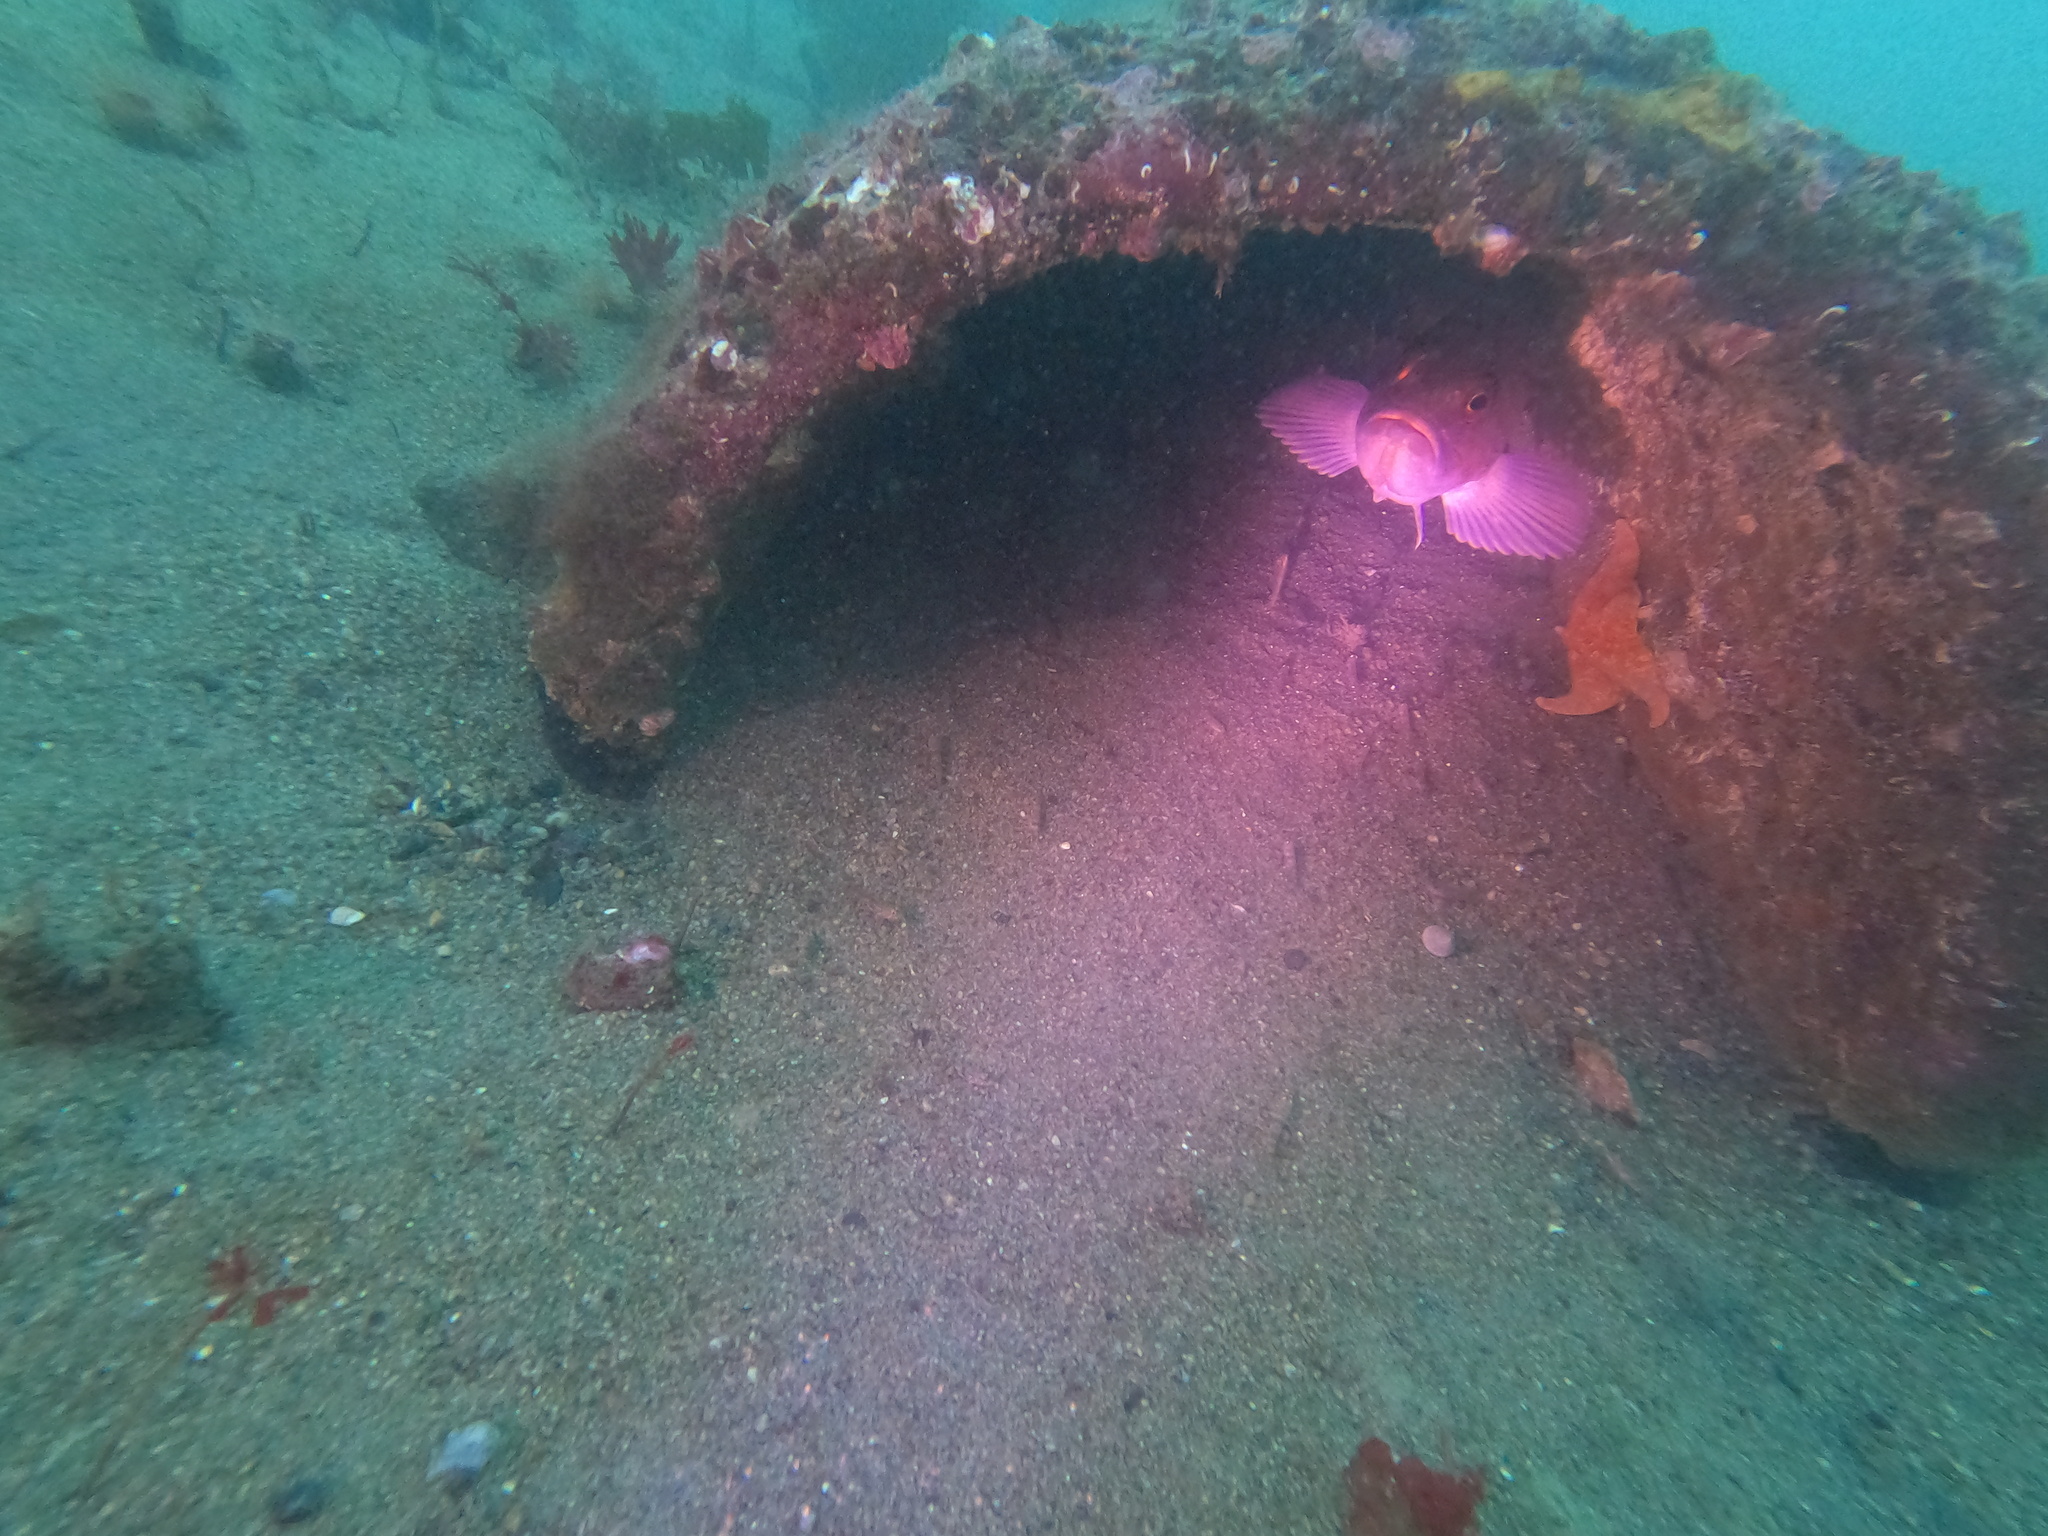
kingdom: Animalia
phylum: Chordata
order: Scorpaeniformes
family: Sebastidae
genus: Sebastes
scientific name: Sebastes auriculatus
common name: Brown rockfish
